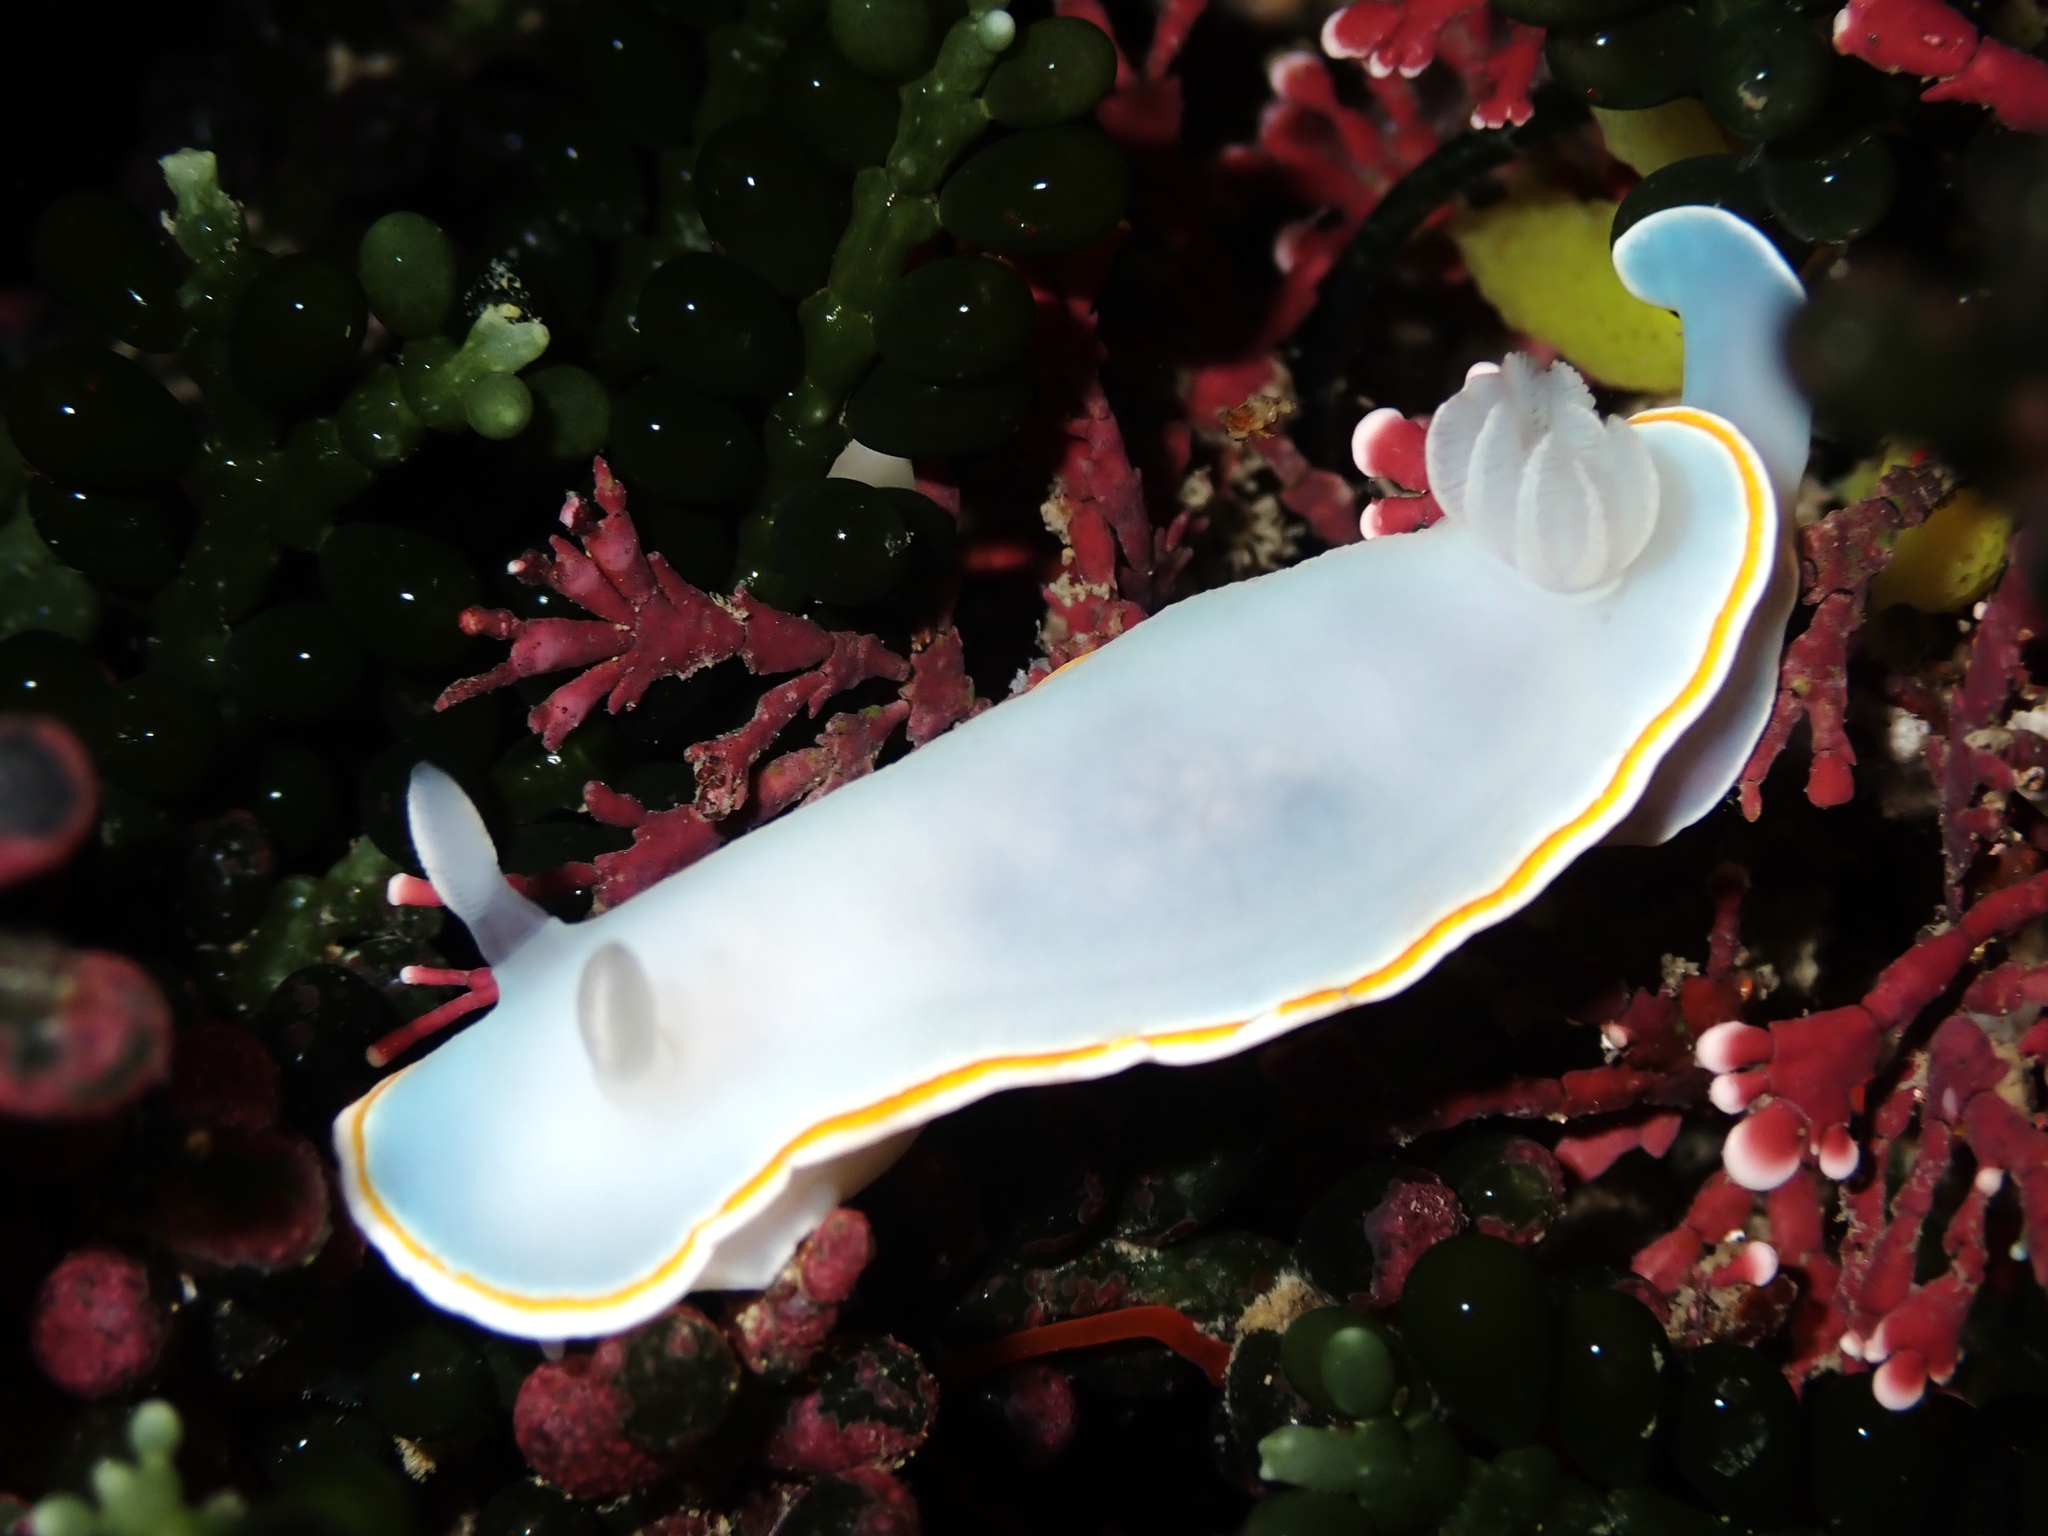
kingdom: Animalia
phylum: Mollusca
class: Gastropoda
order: Nudibranchia
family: Chromodorididae
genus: Goniobranchus
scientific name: Goniobranchus aureomarginatus
